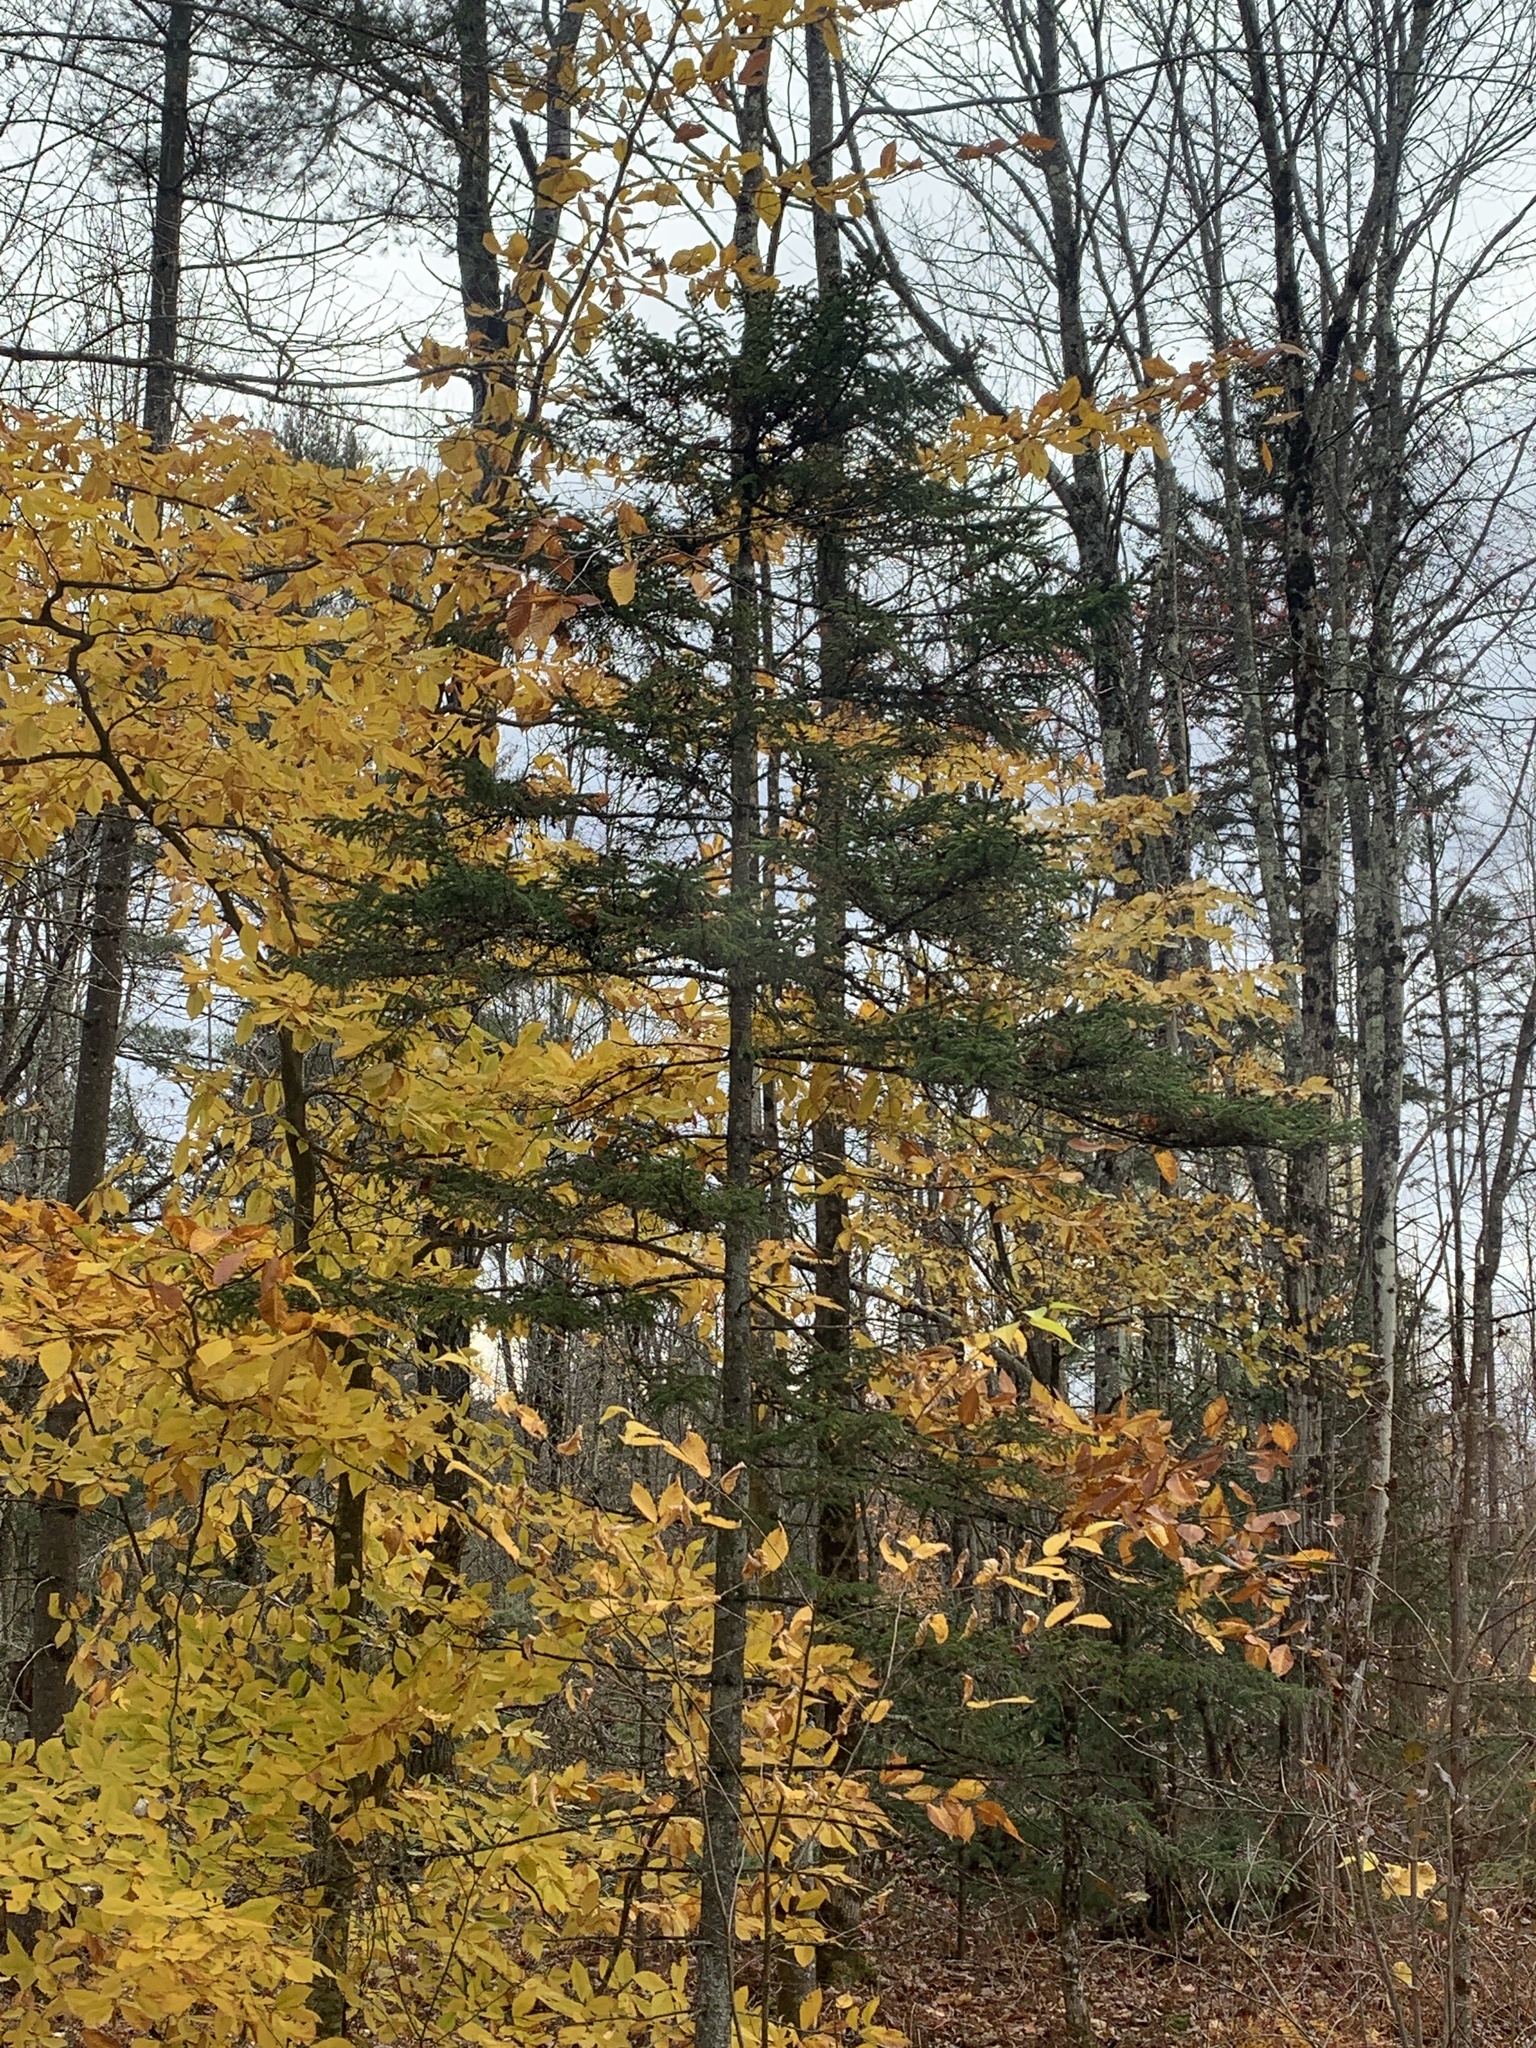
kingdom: Plantae
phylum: Tracheophyta
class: Pinopsida
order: Pinales
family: Pinaceae
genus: Picea
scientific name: Picea rubens
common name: Red spruce
